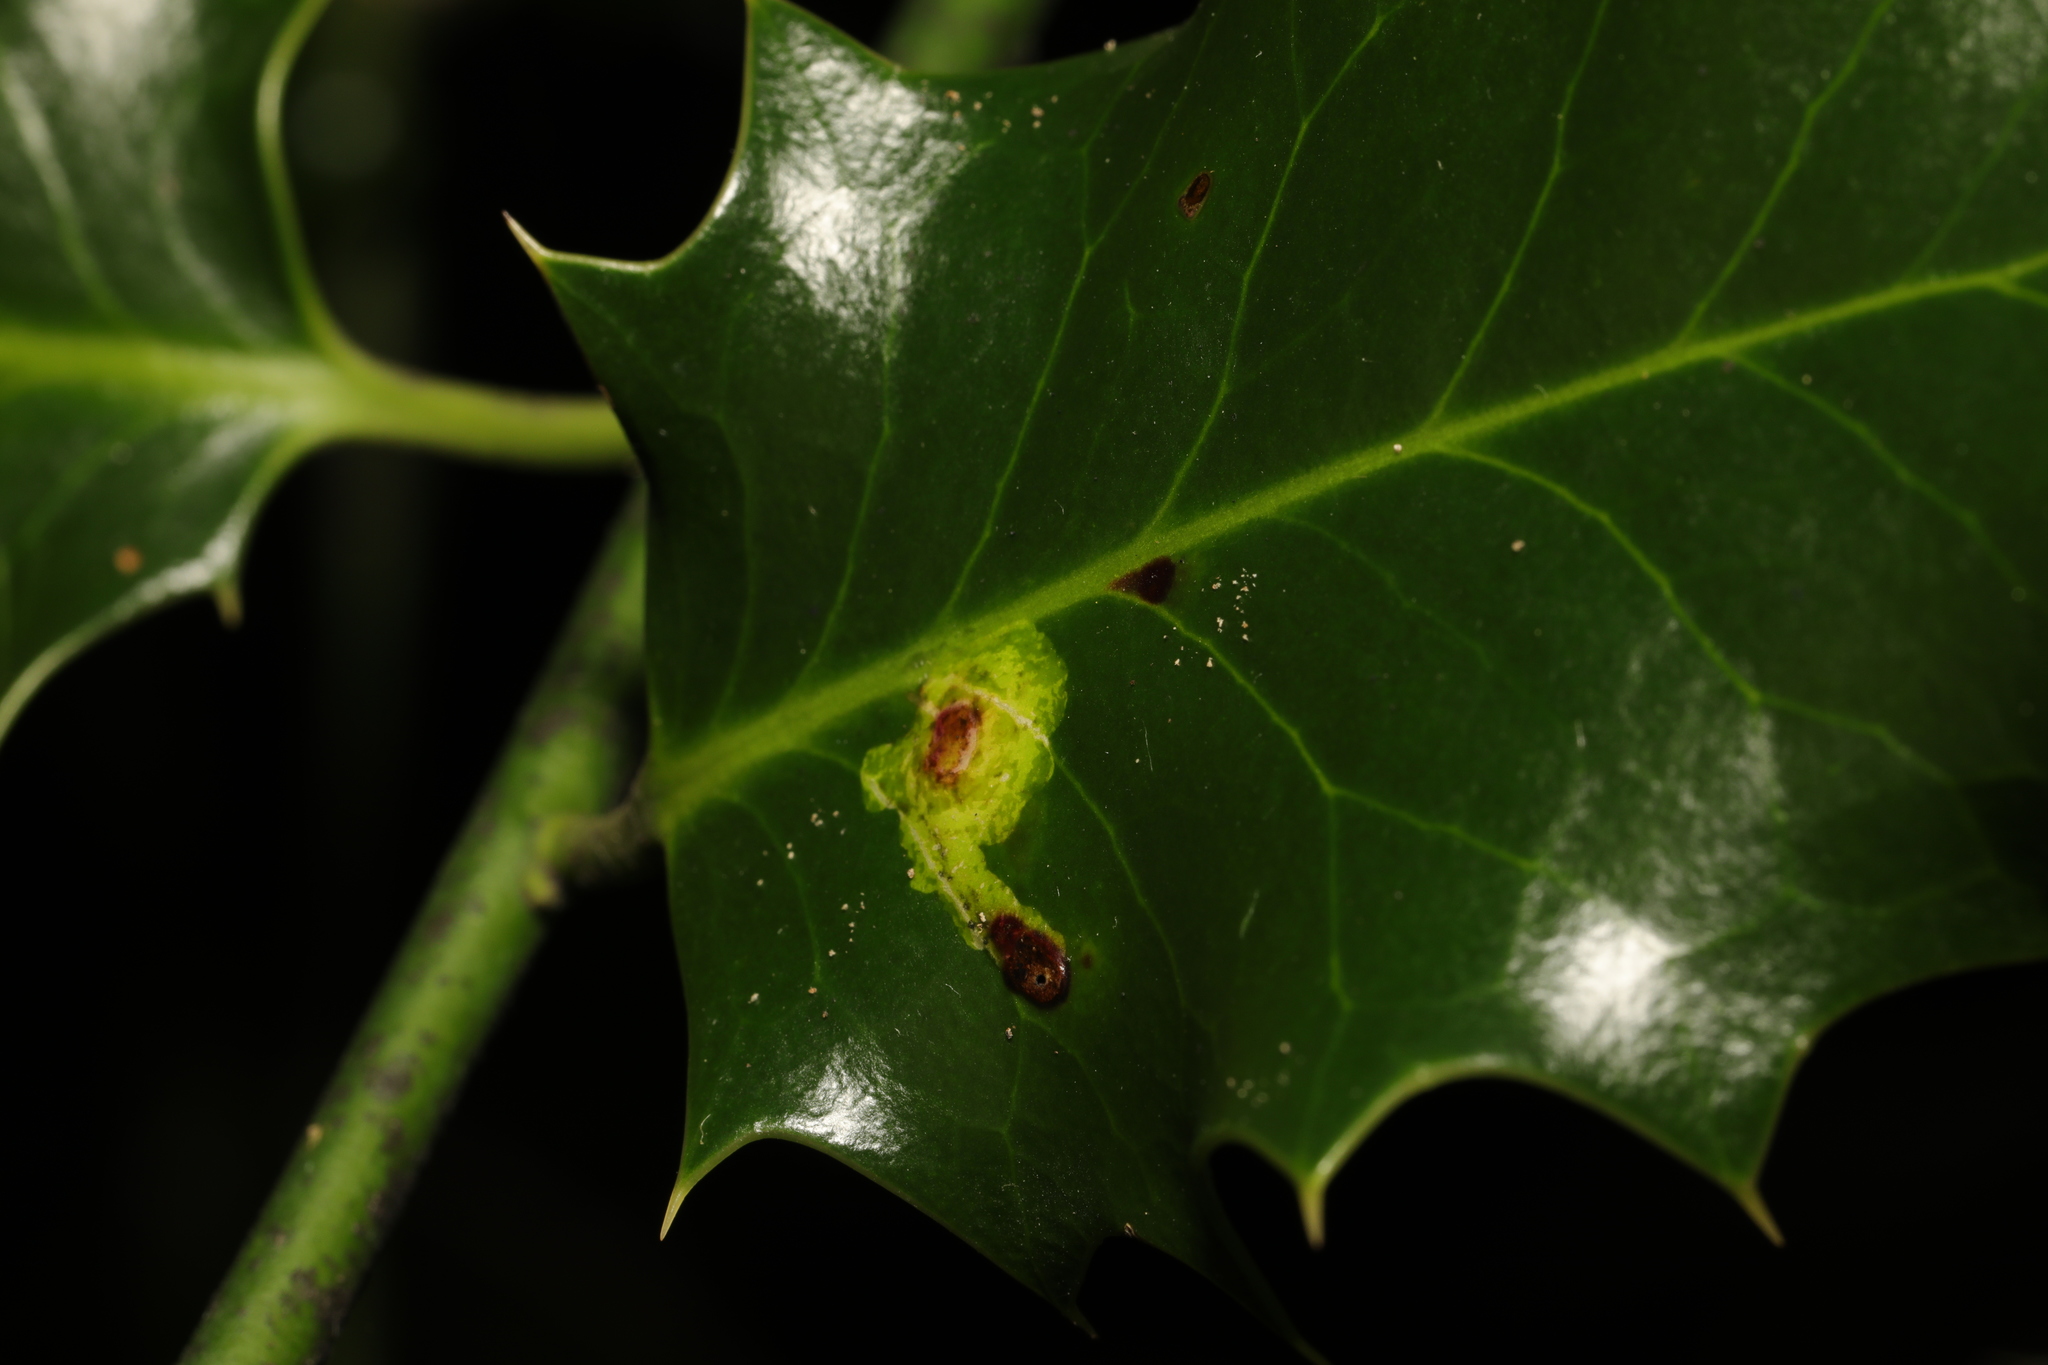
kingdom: Animalia
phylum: Arthropoda
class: Insecta
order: Diptera
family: Agromyzidae
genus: Phytomyza
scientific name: Phytomyza ilicis
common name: Holly leafminer
